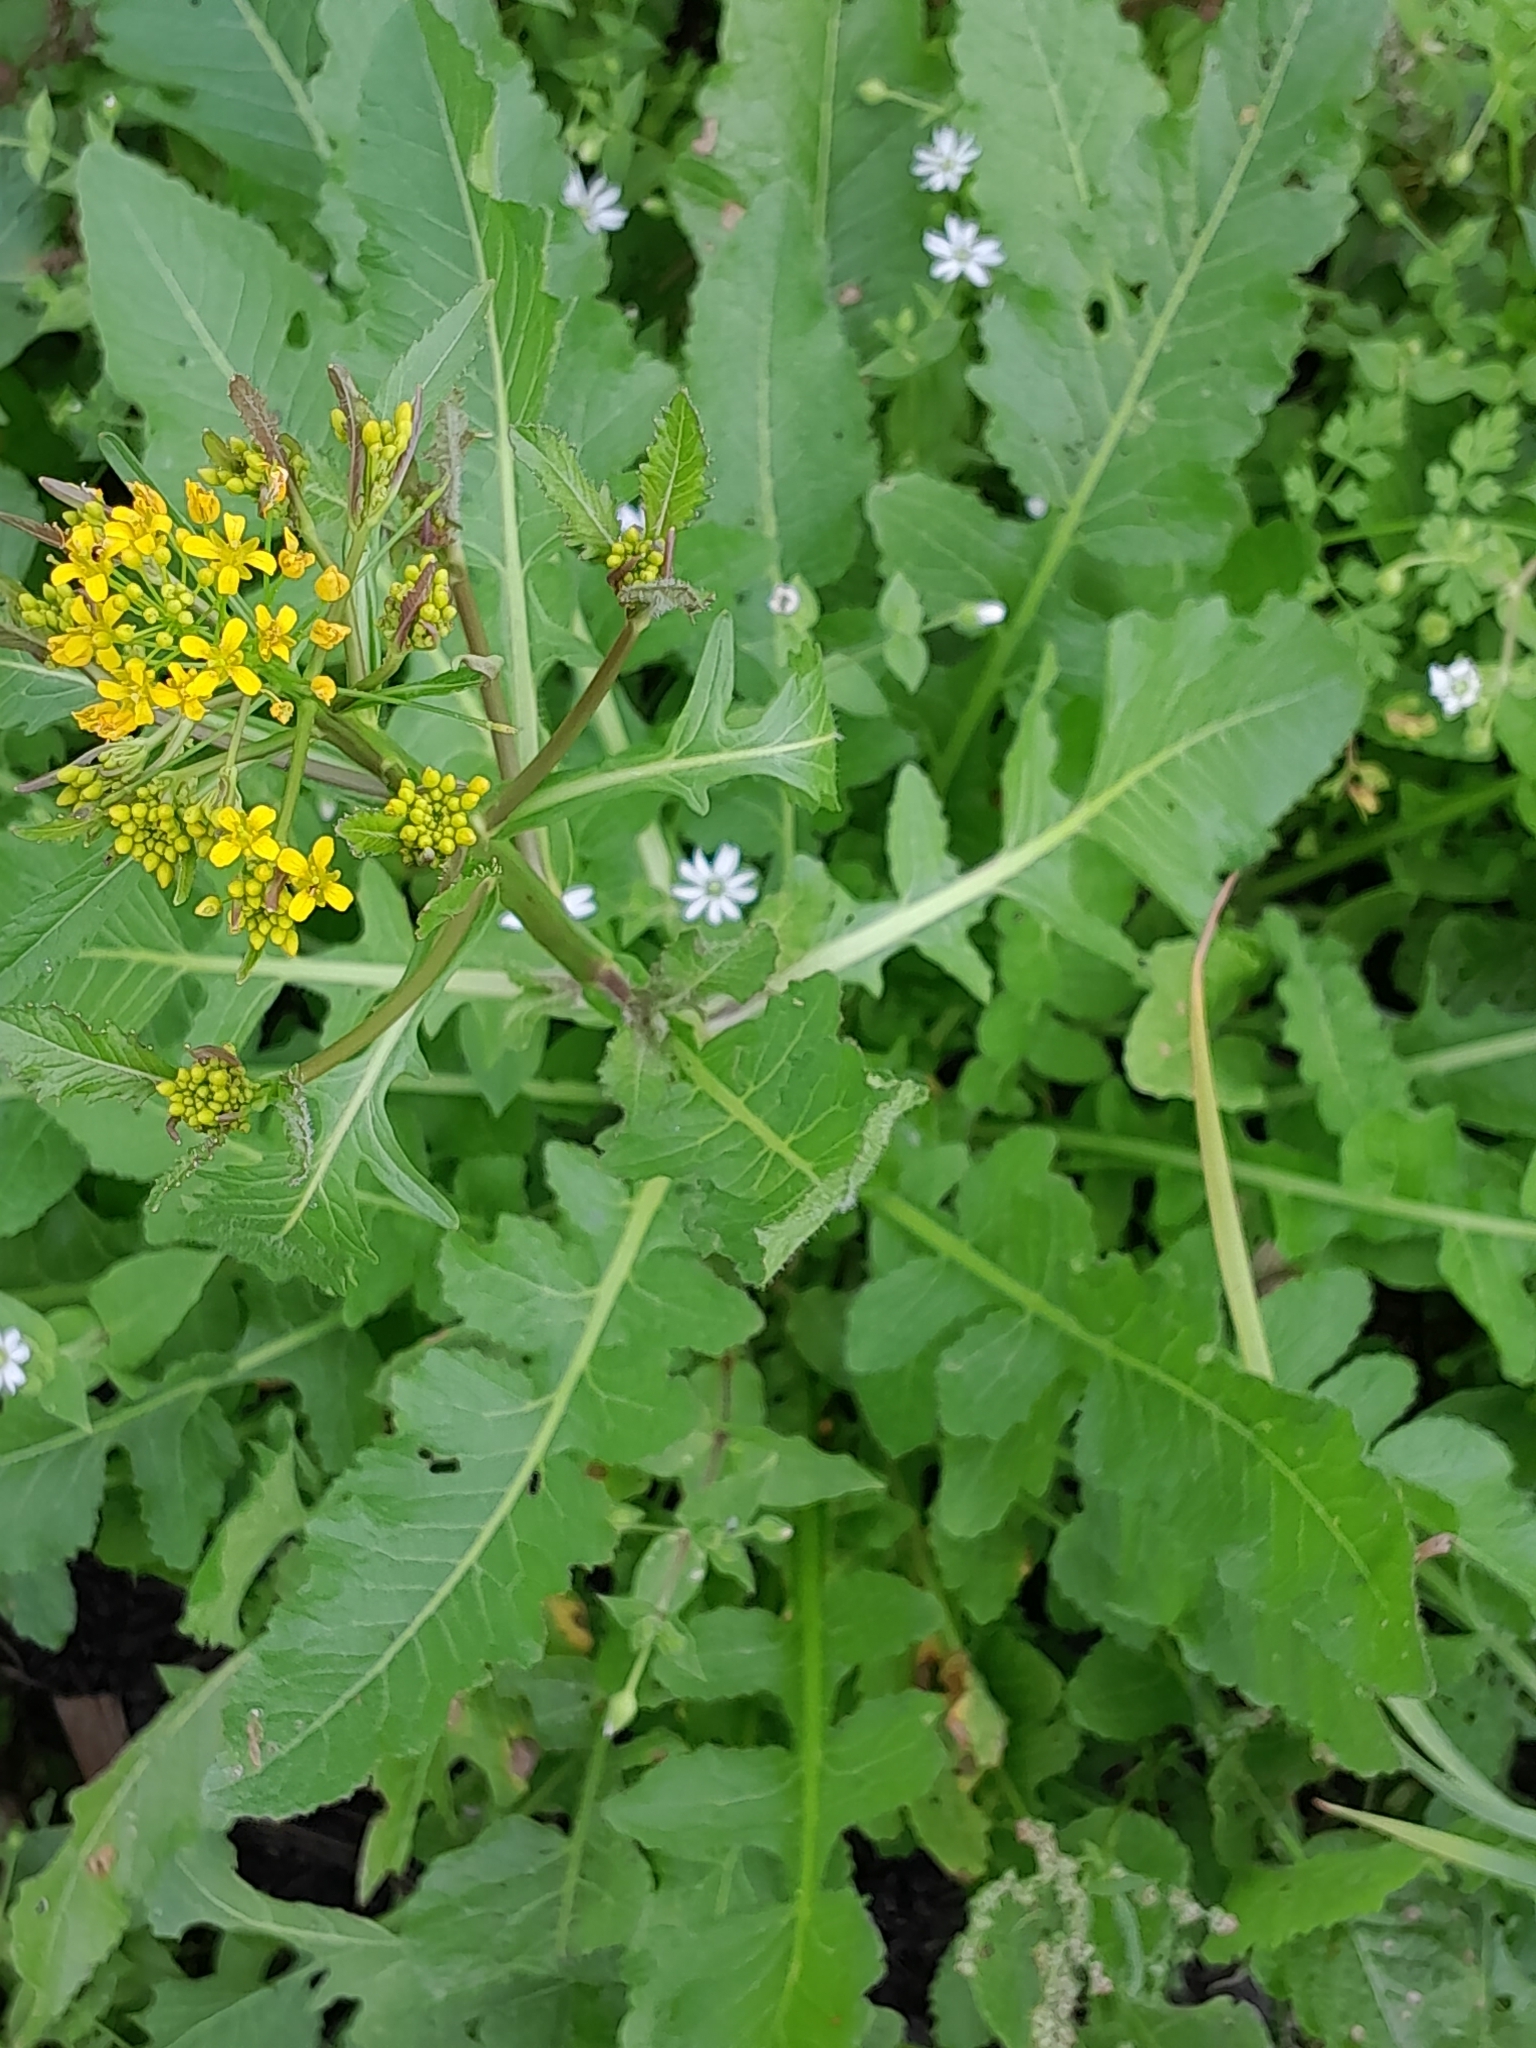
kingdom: Plantae
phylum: Tracheophyta
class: Magnoliopsida
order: Brassicales
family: Brassicaceae
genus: Rorippa
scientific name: Rorippa amphibia
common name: Great yellow-cress
